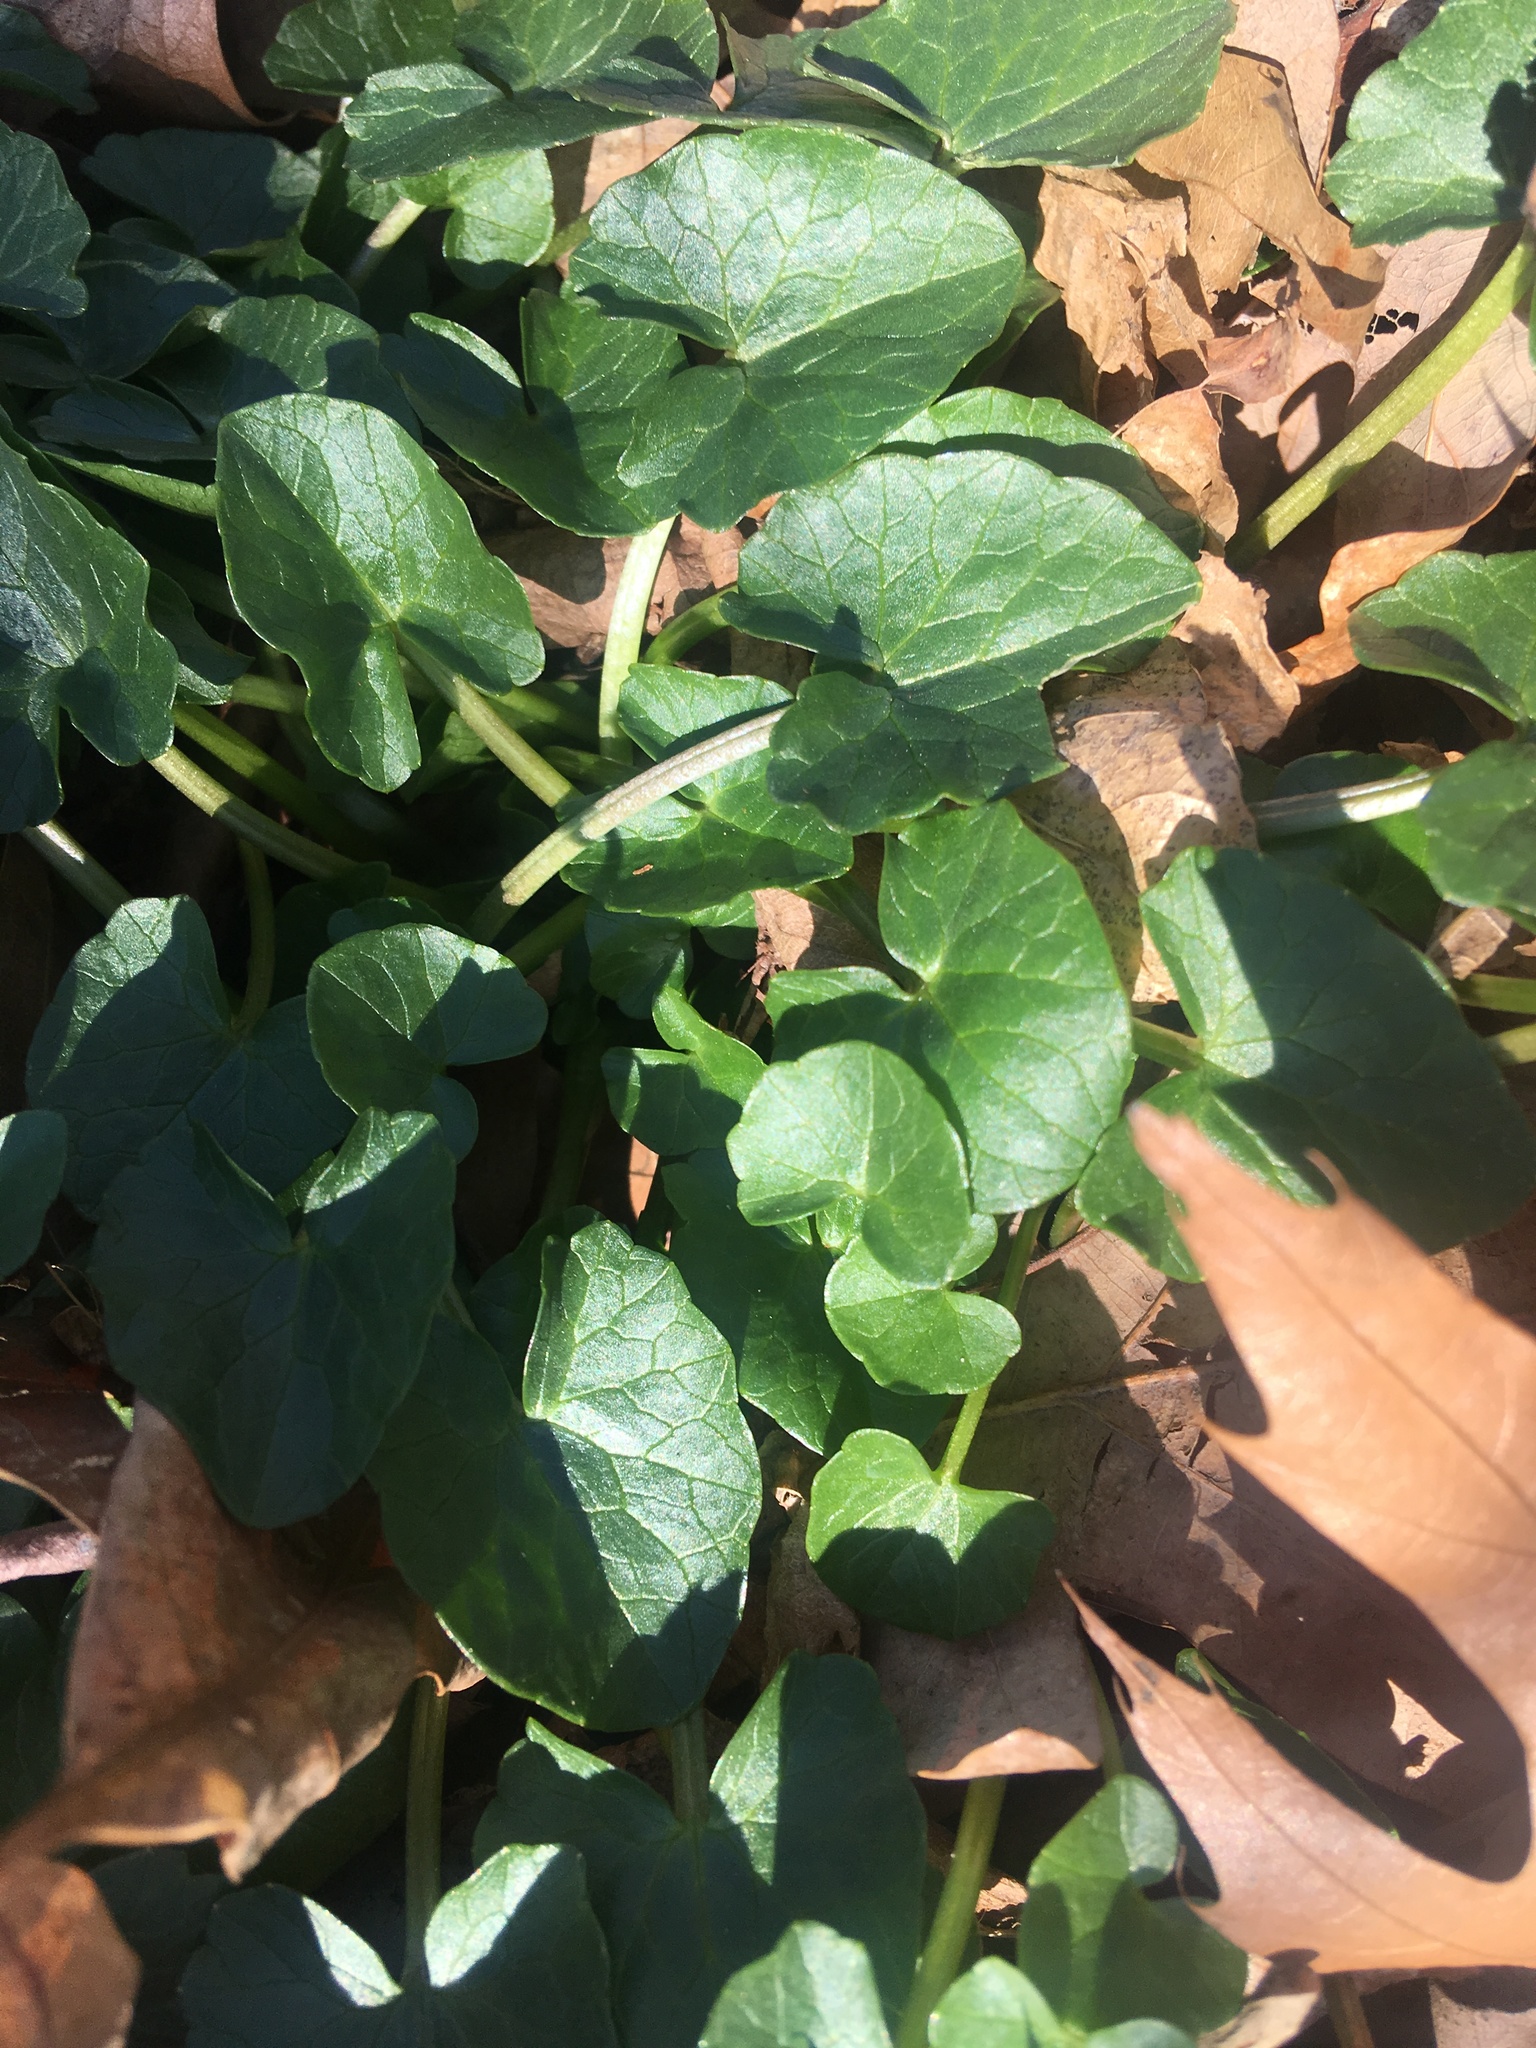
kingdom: Plantae
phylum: Tracheophyta
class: Magnoliopsida
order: Ranunculales
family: Ranunculaceae
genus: Ficaria
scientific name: Ficaria verna
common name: Lesser celandine
